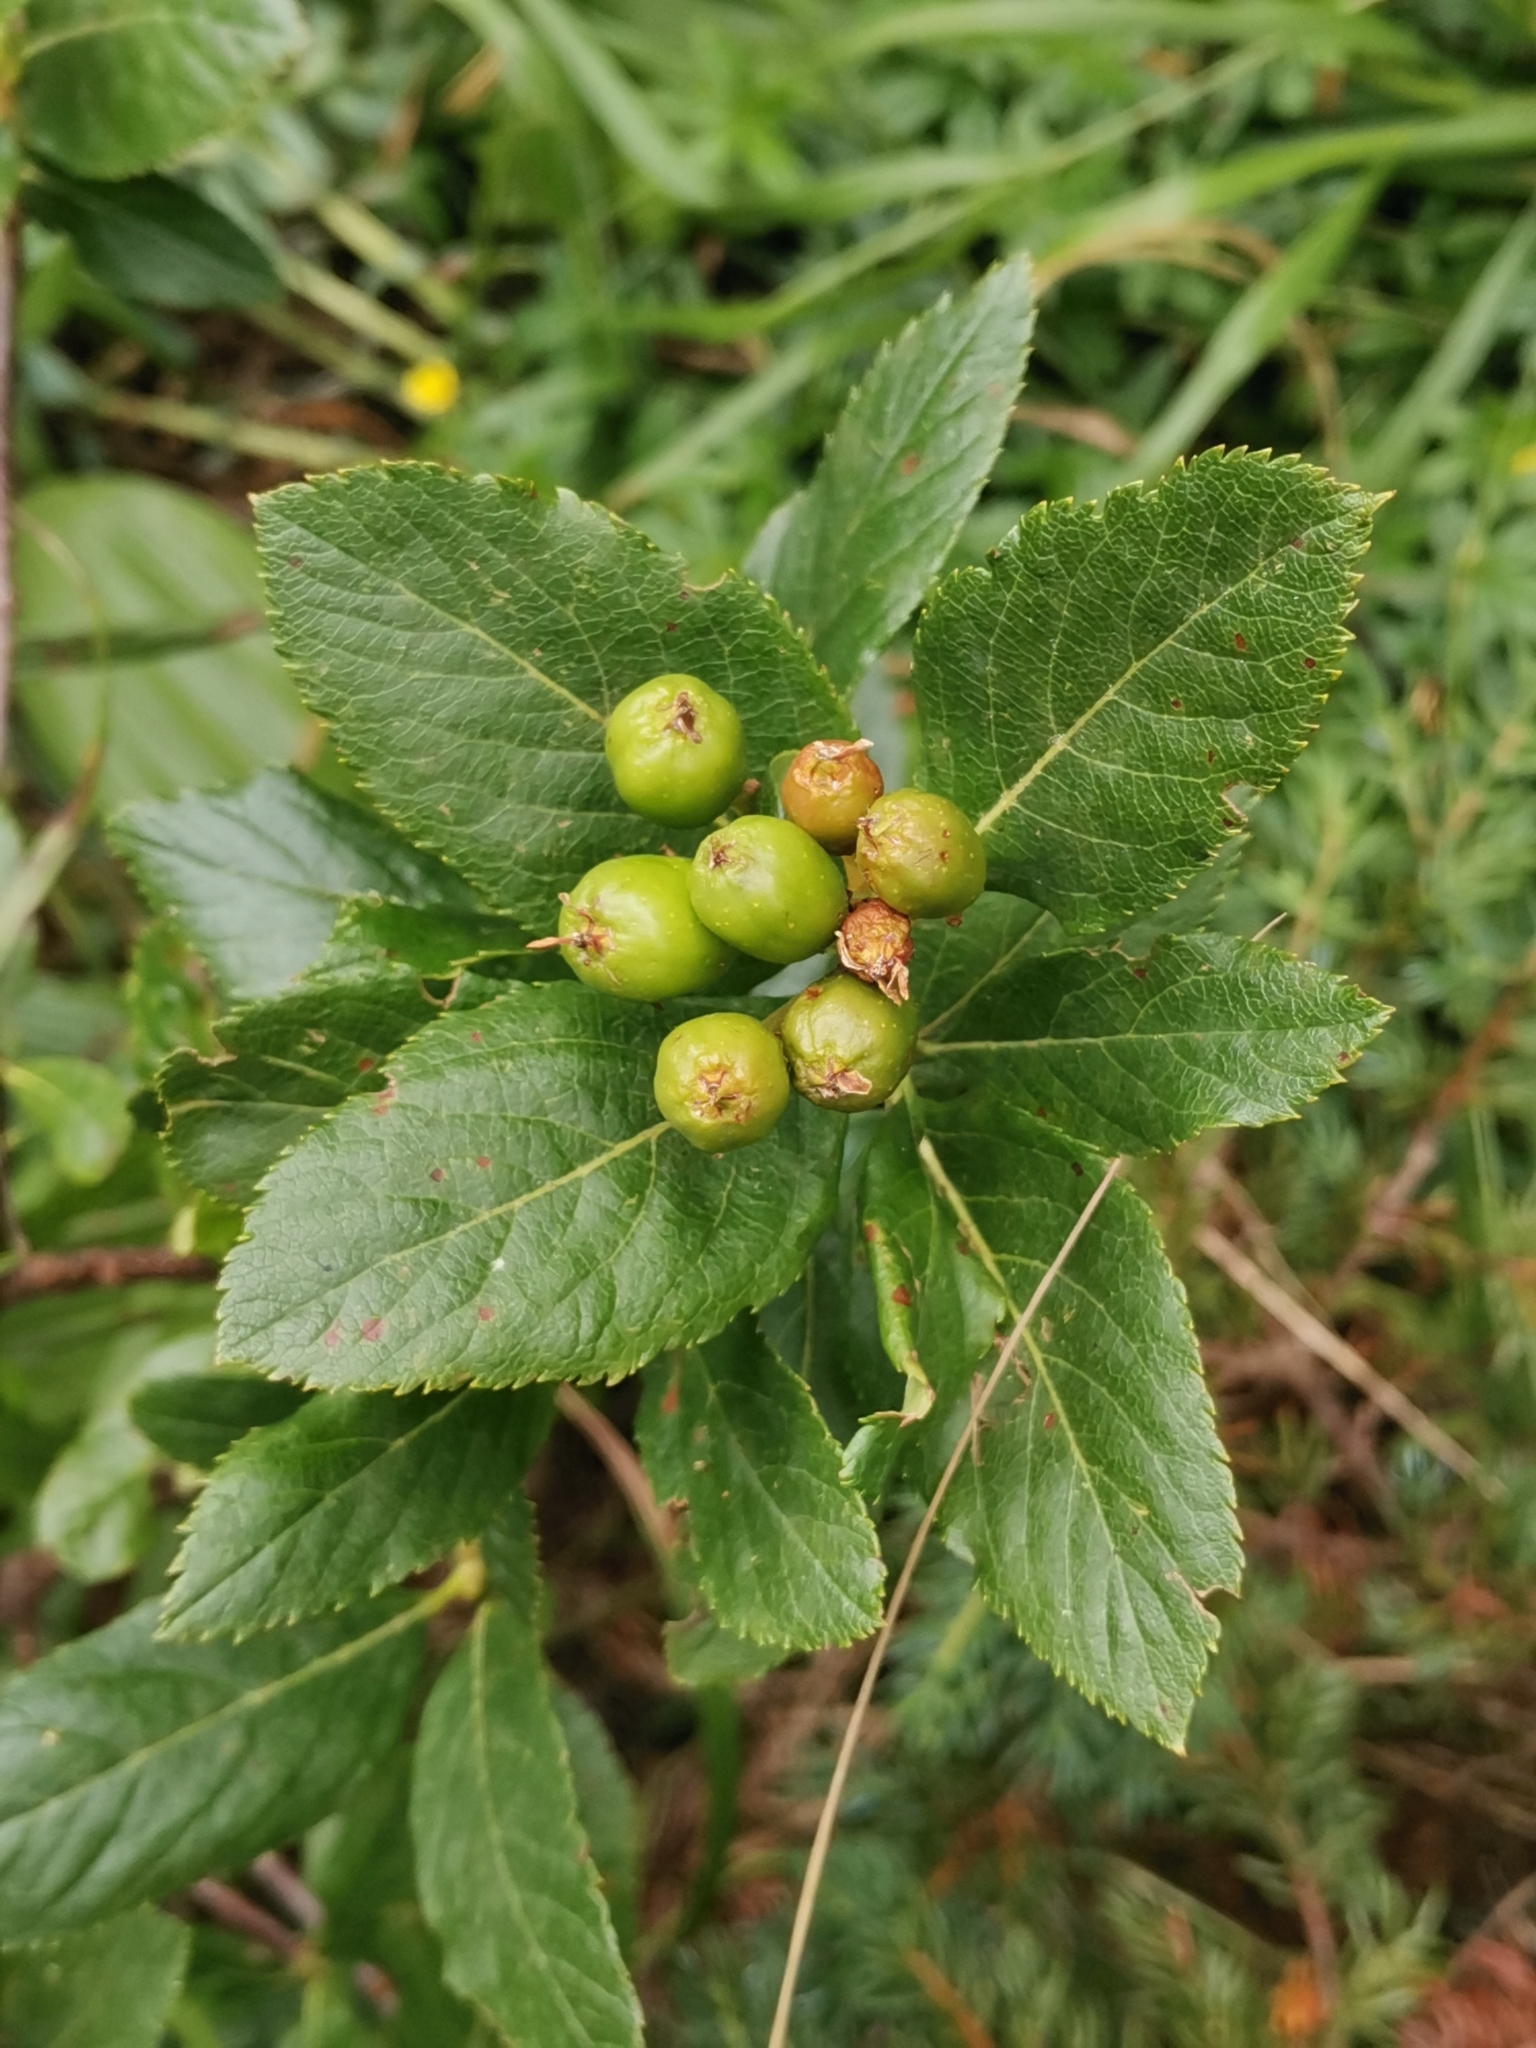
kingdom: Plantae
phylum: Tracheophyta
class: Magnoliopsida
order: Rosales
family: Rosaceae
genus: Chamaemespilus
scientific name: Chamaemespilus alpina
